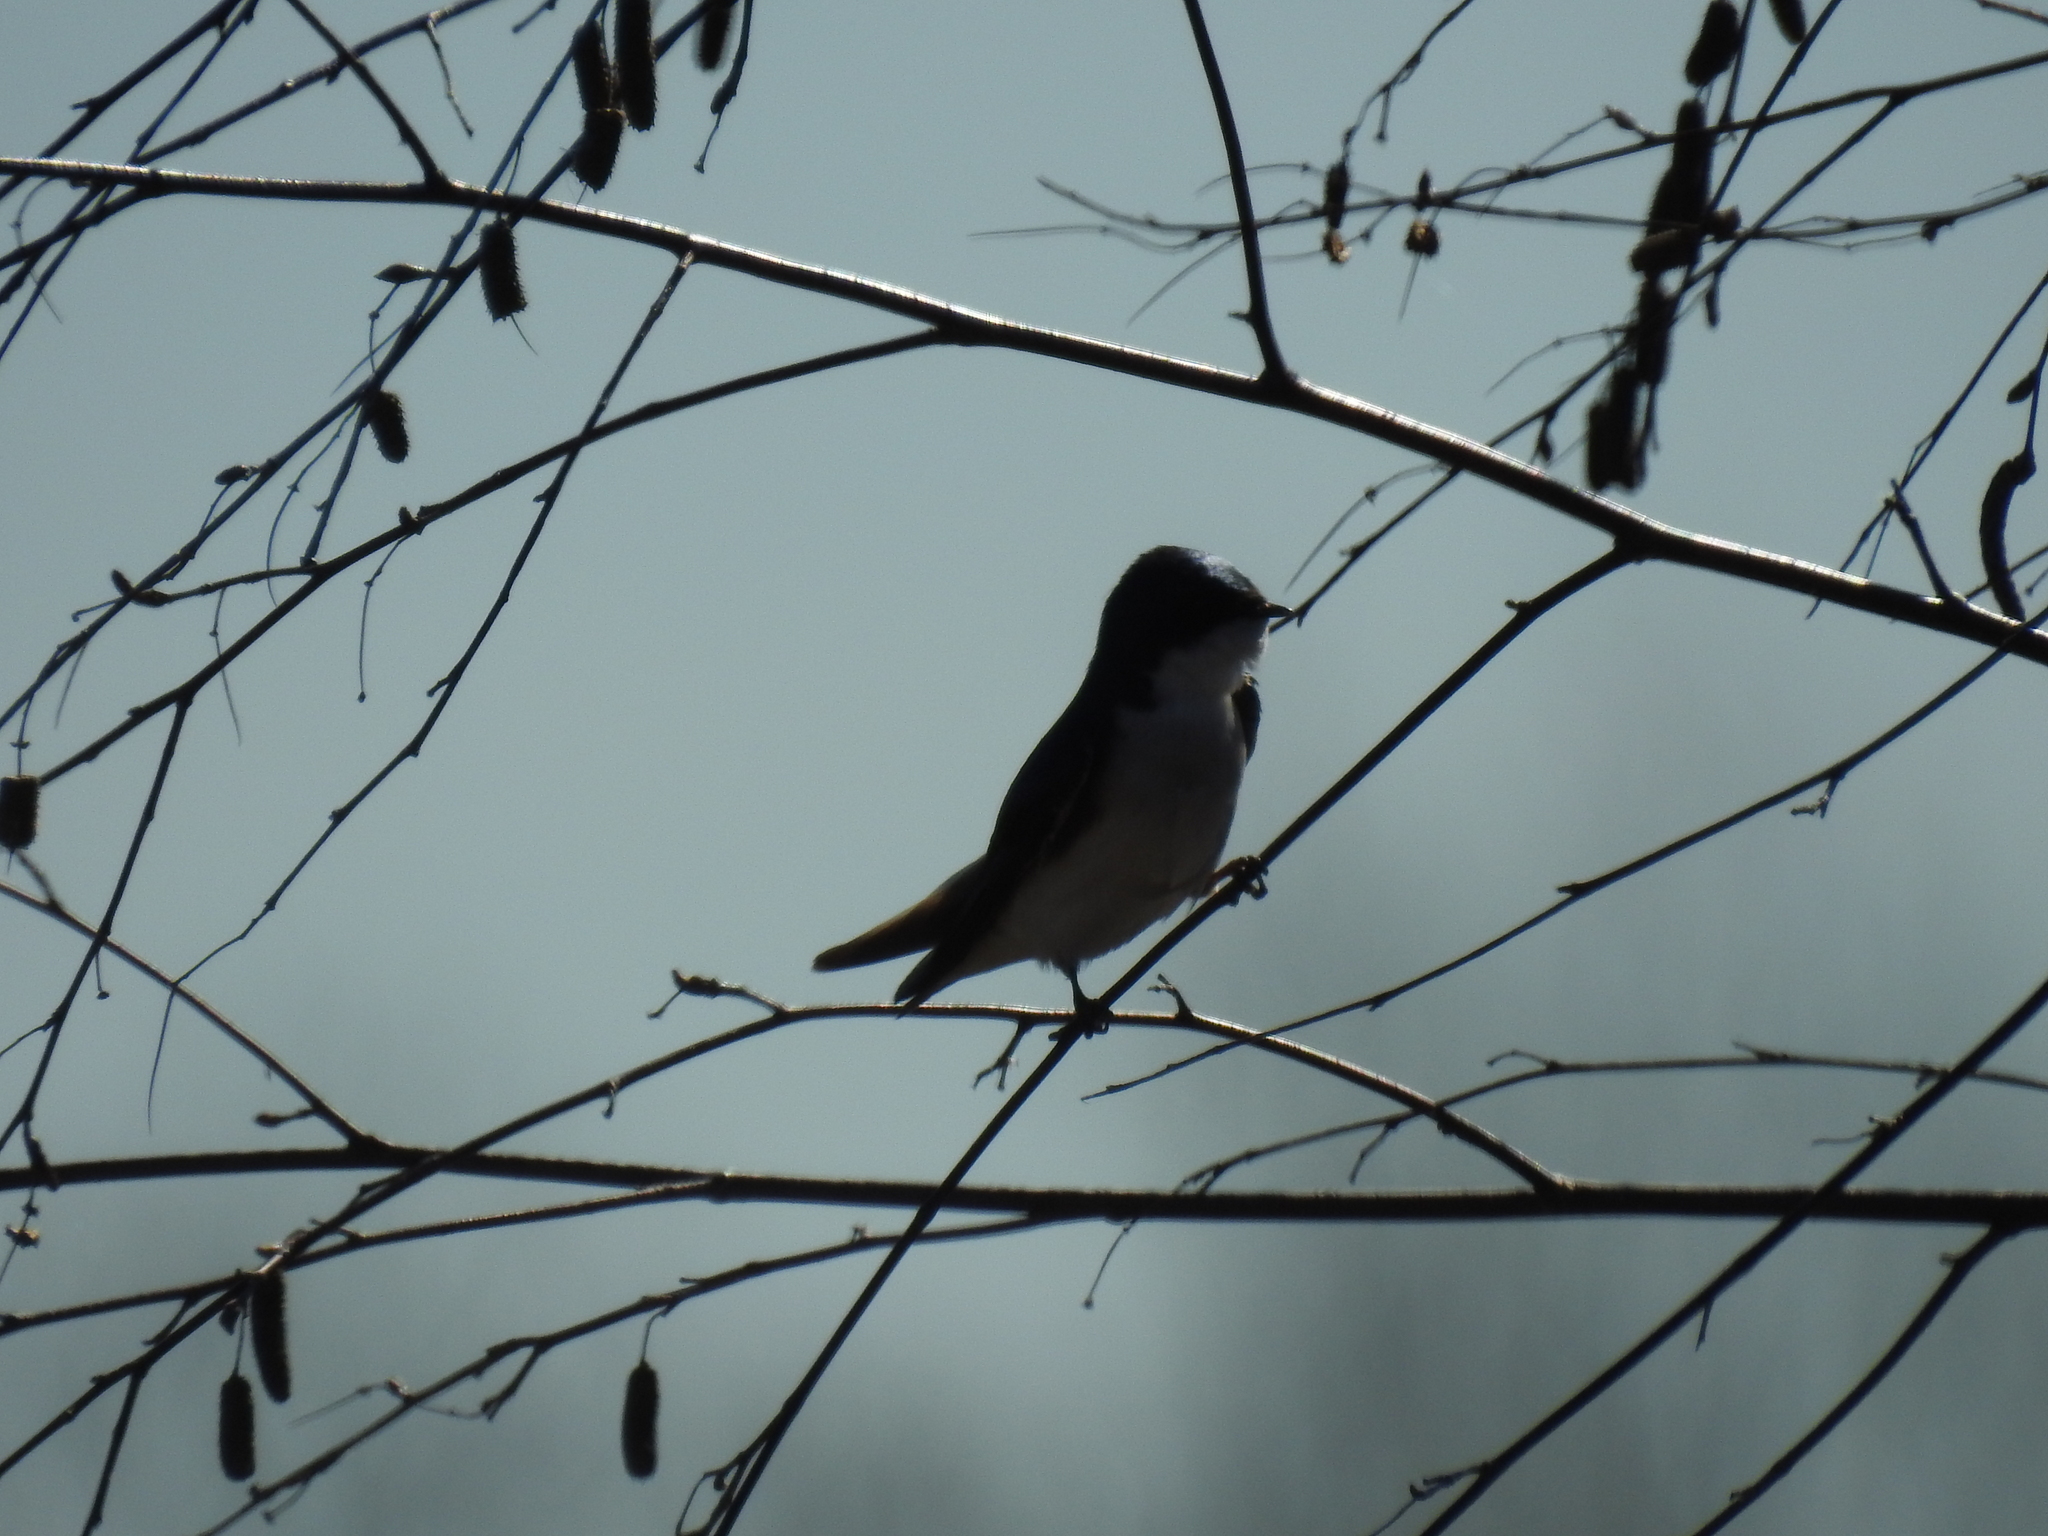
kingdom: Animalia
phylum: Chordata
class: Aves
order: Passeriformes
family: Hirundinidae
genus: Tachycineta
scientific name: Tachycineta bicolor
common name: Tree swallow
